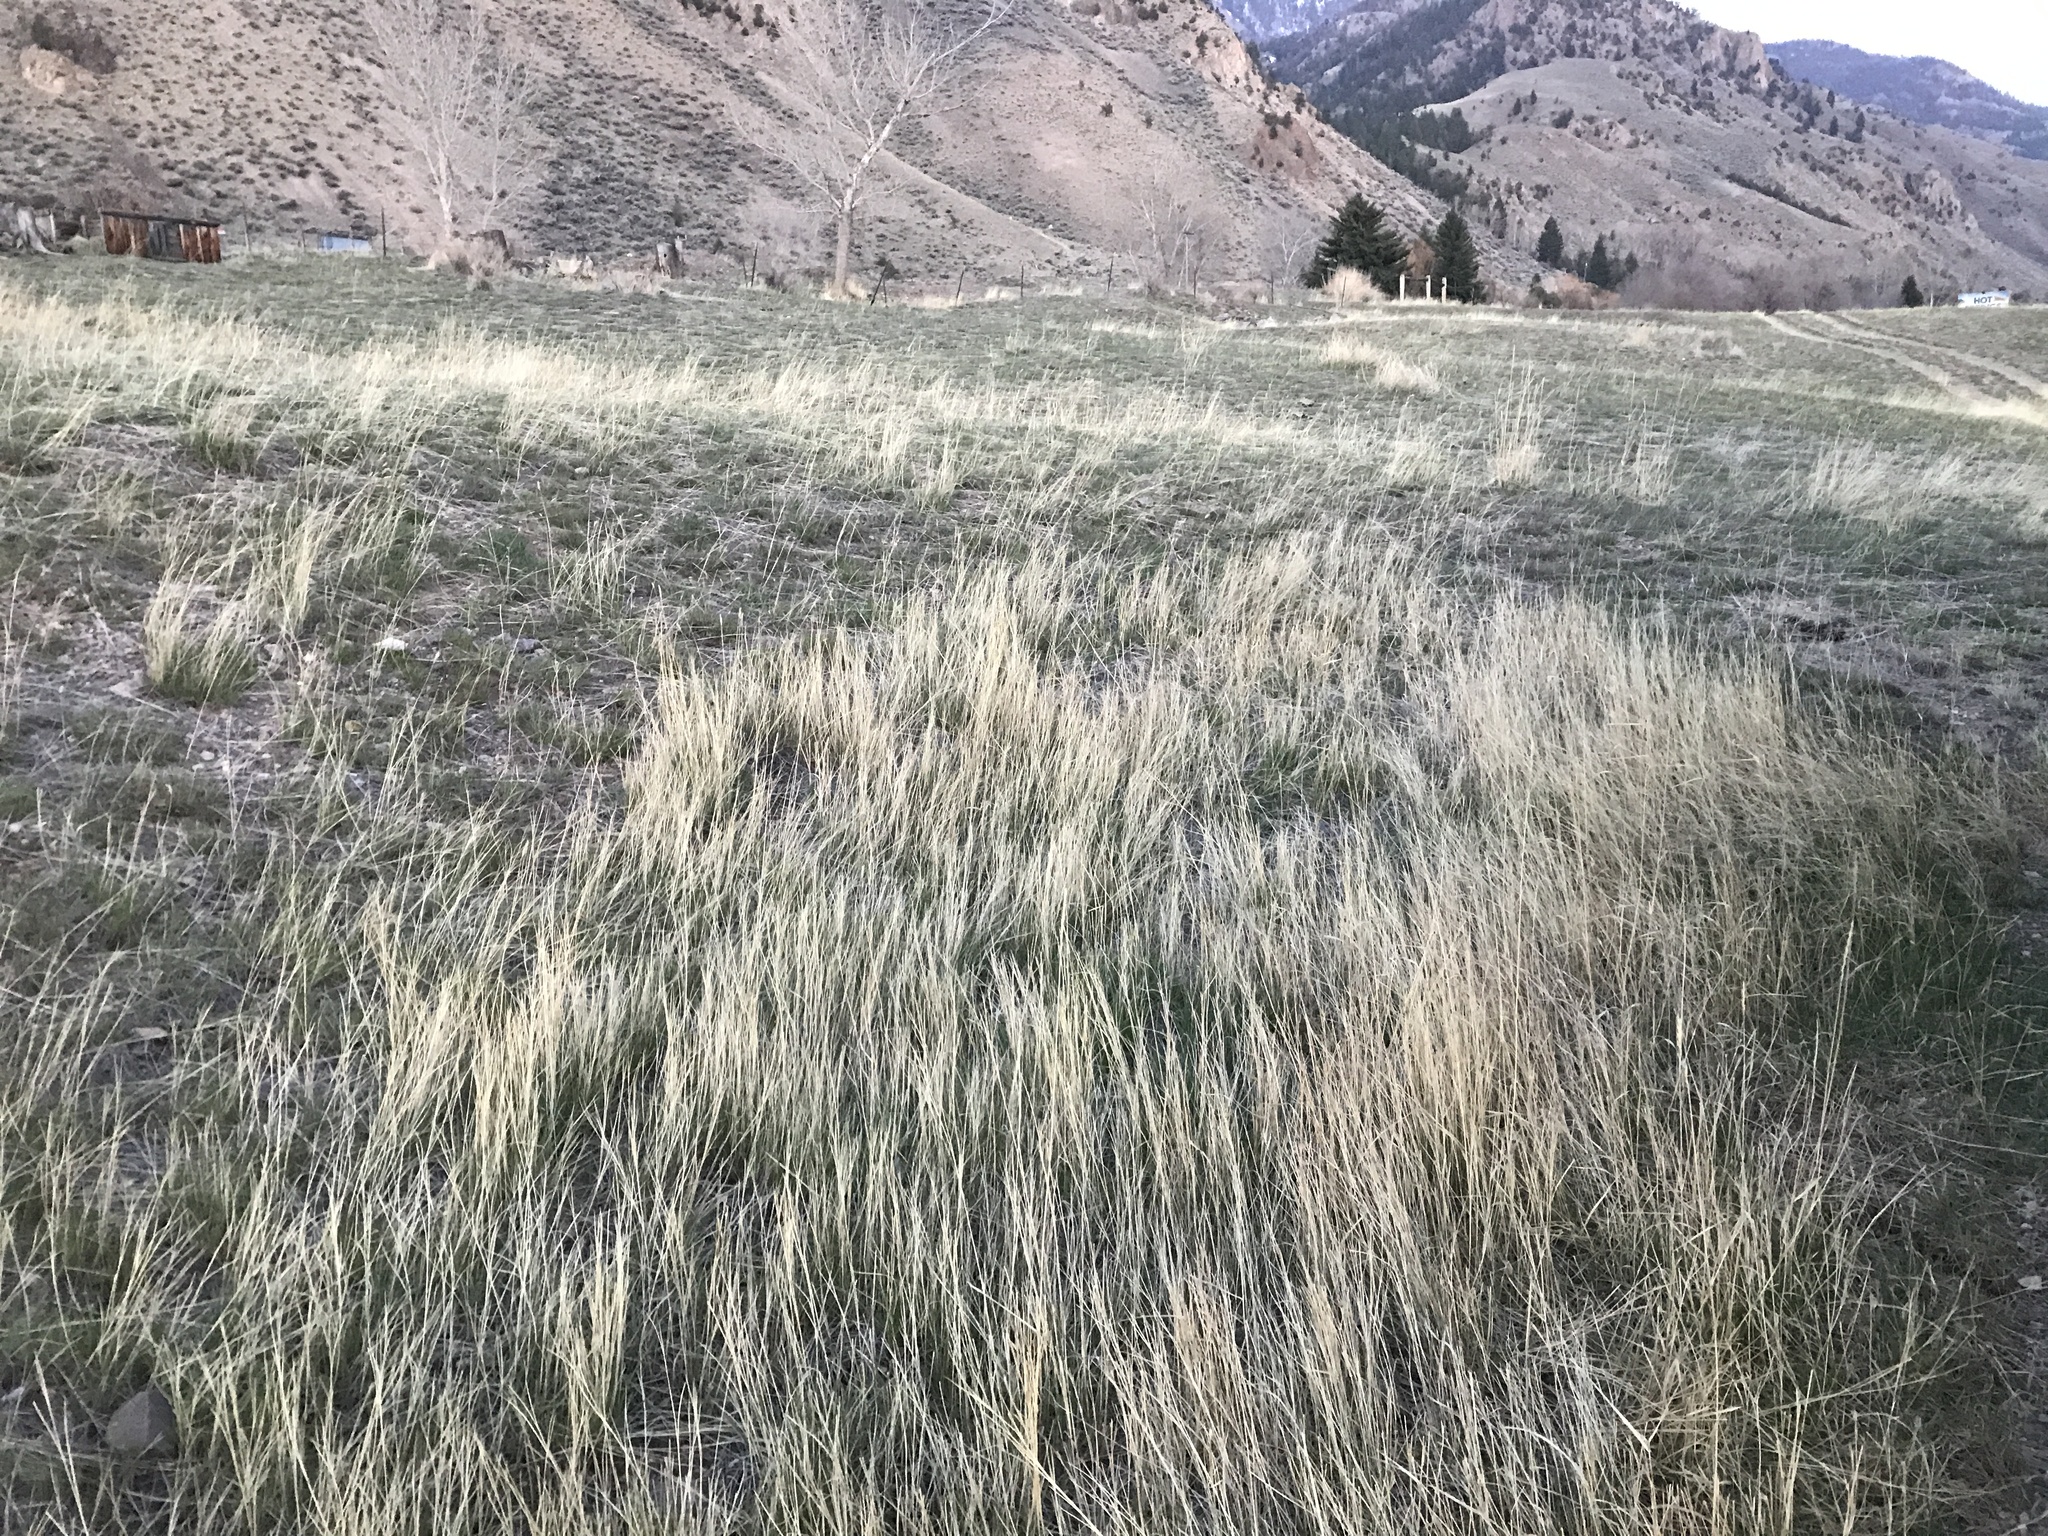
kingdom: Plantae
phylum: Tracheophyta
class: Liliopsida
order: Poales
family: Poaceae
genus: Agropyron
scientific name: Agropyron cristatum
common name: Crested wheatgrass
